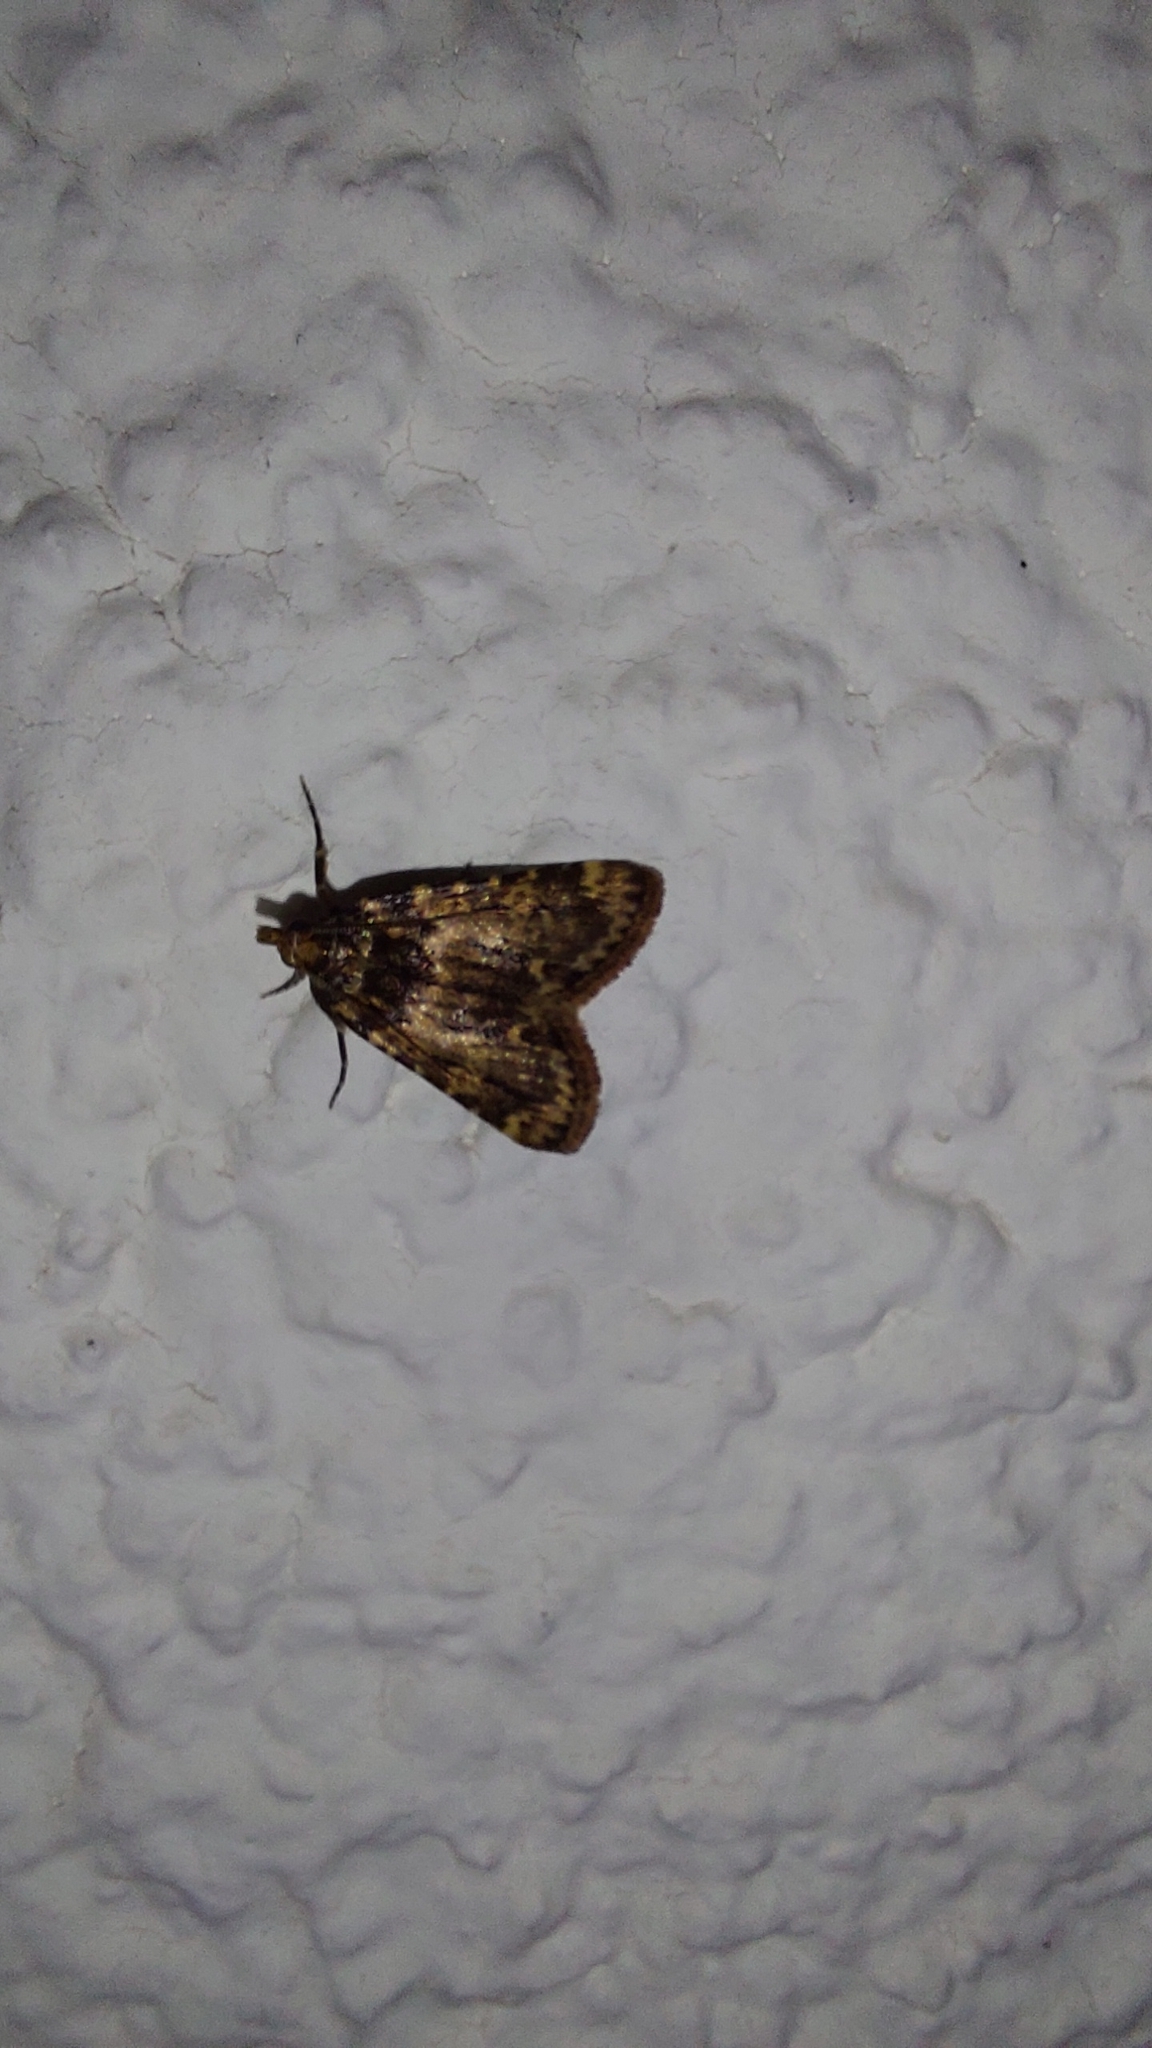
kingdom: Animalia
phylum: Arthropoda
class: Insecta
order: Lepidoptera
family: Pyralidae
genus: Aglossa
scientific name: Aglossa caprealis
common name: Small tabby
